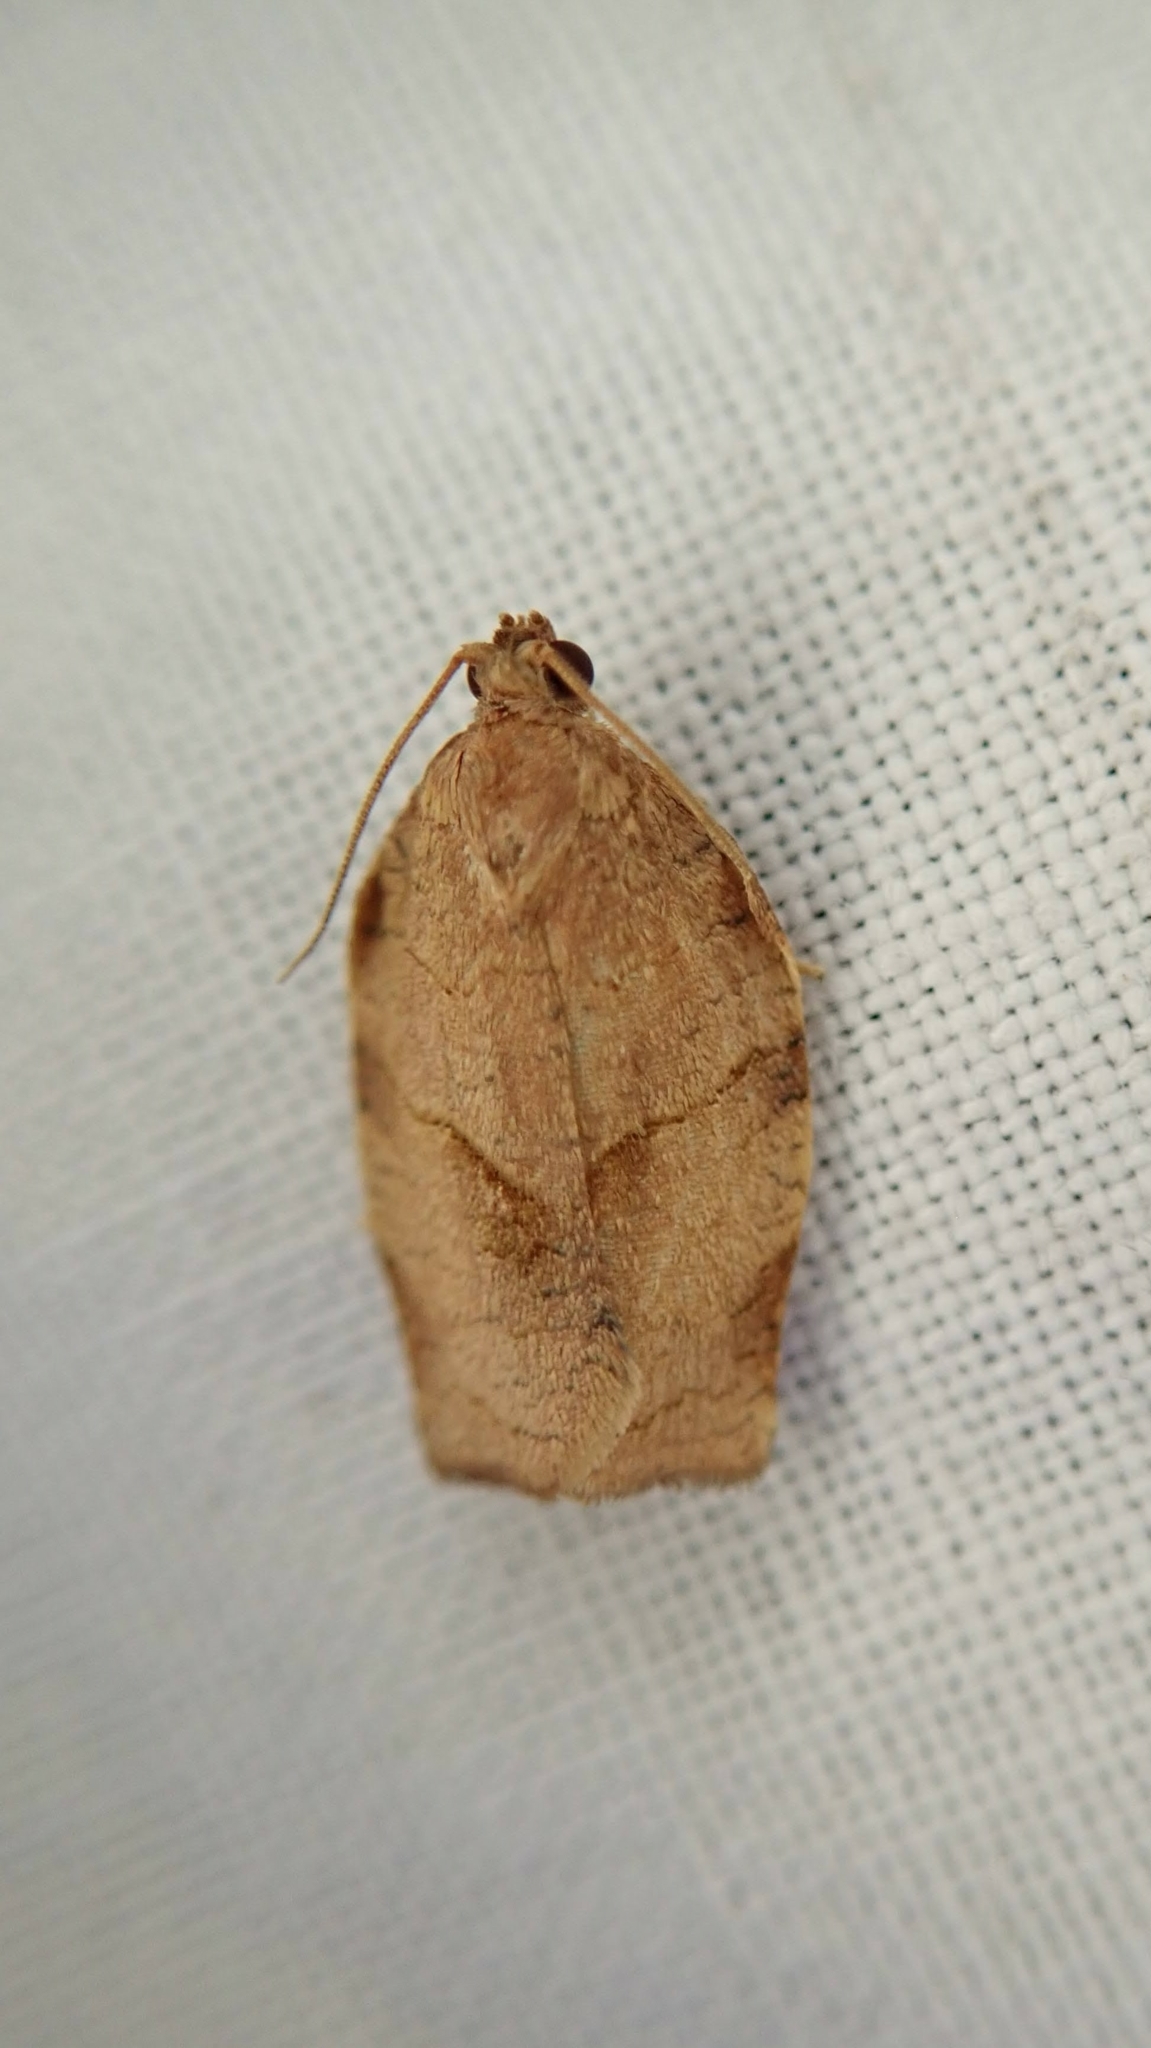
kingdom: Animalia
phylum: Arthropoda
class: Insecta
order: Lepidoptera
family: Tortricidae
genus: Choristoneura
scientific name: Choristoneura rosaceana
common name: Oblique-banded leafroller moth
